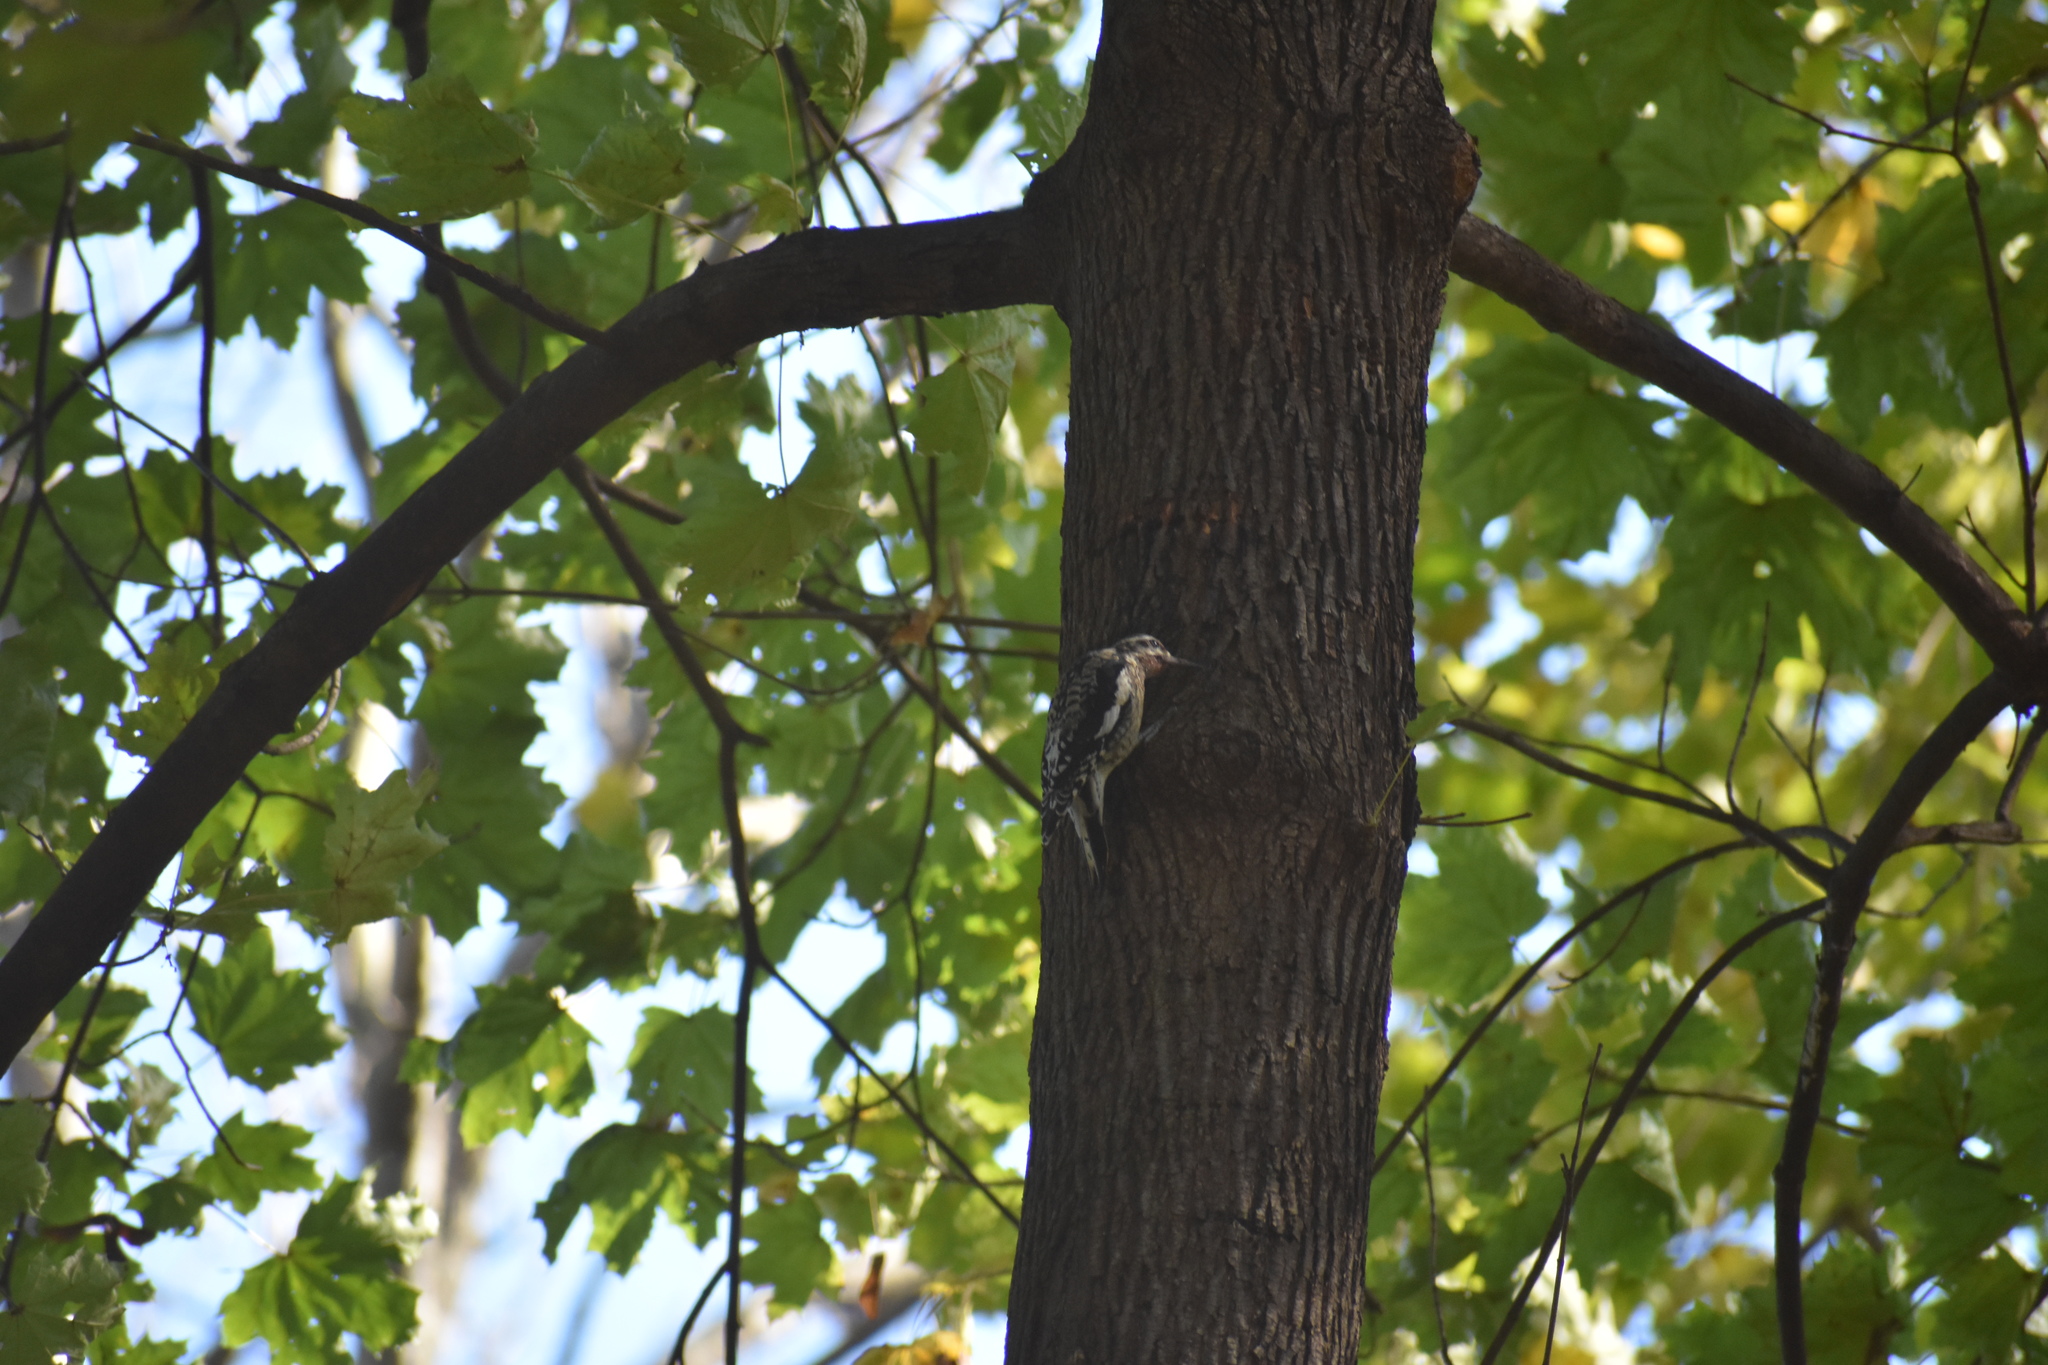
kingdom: Animalia
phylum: Chordata
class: Aves
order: Piciformes
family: Picidae
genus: Sphyrapicus
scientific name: Sphyrapicus varius
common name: Yellow-bellied sapsucker
